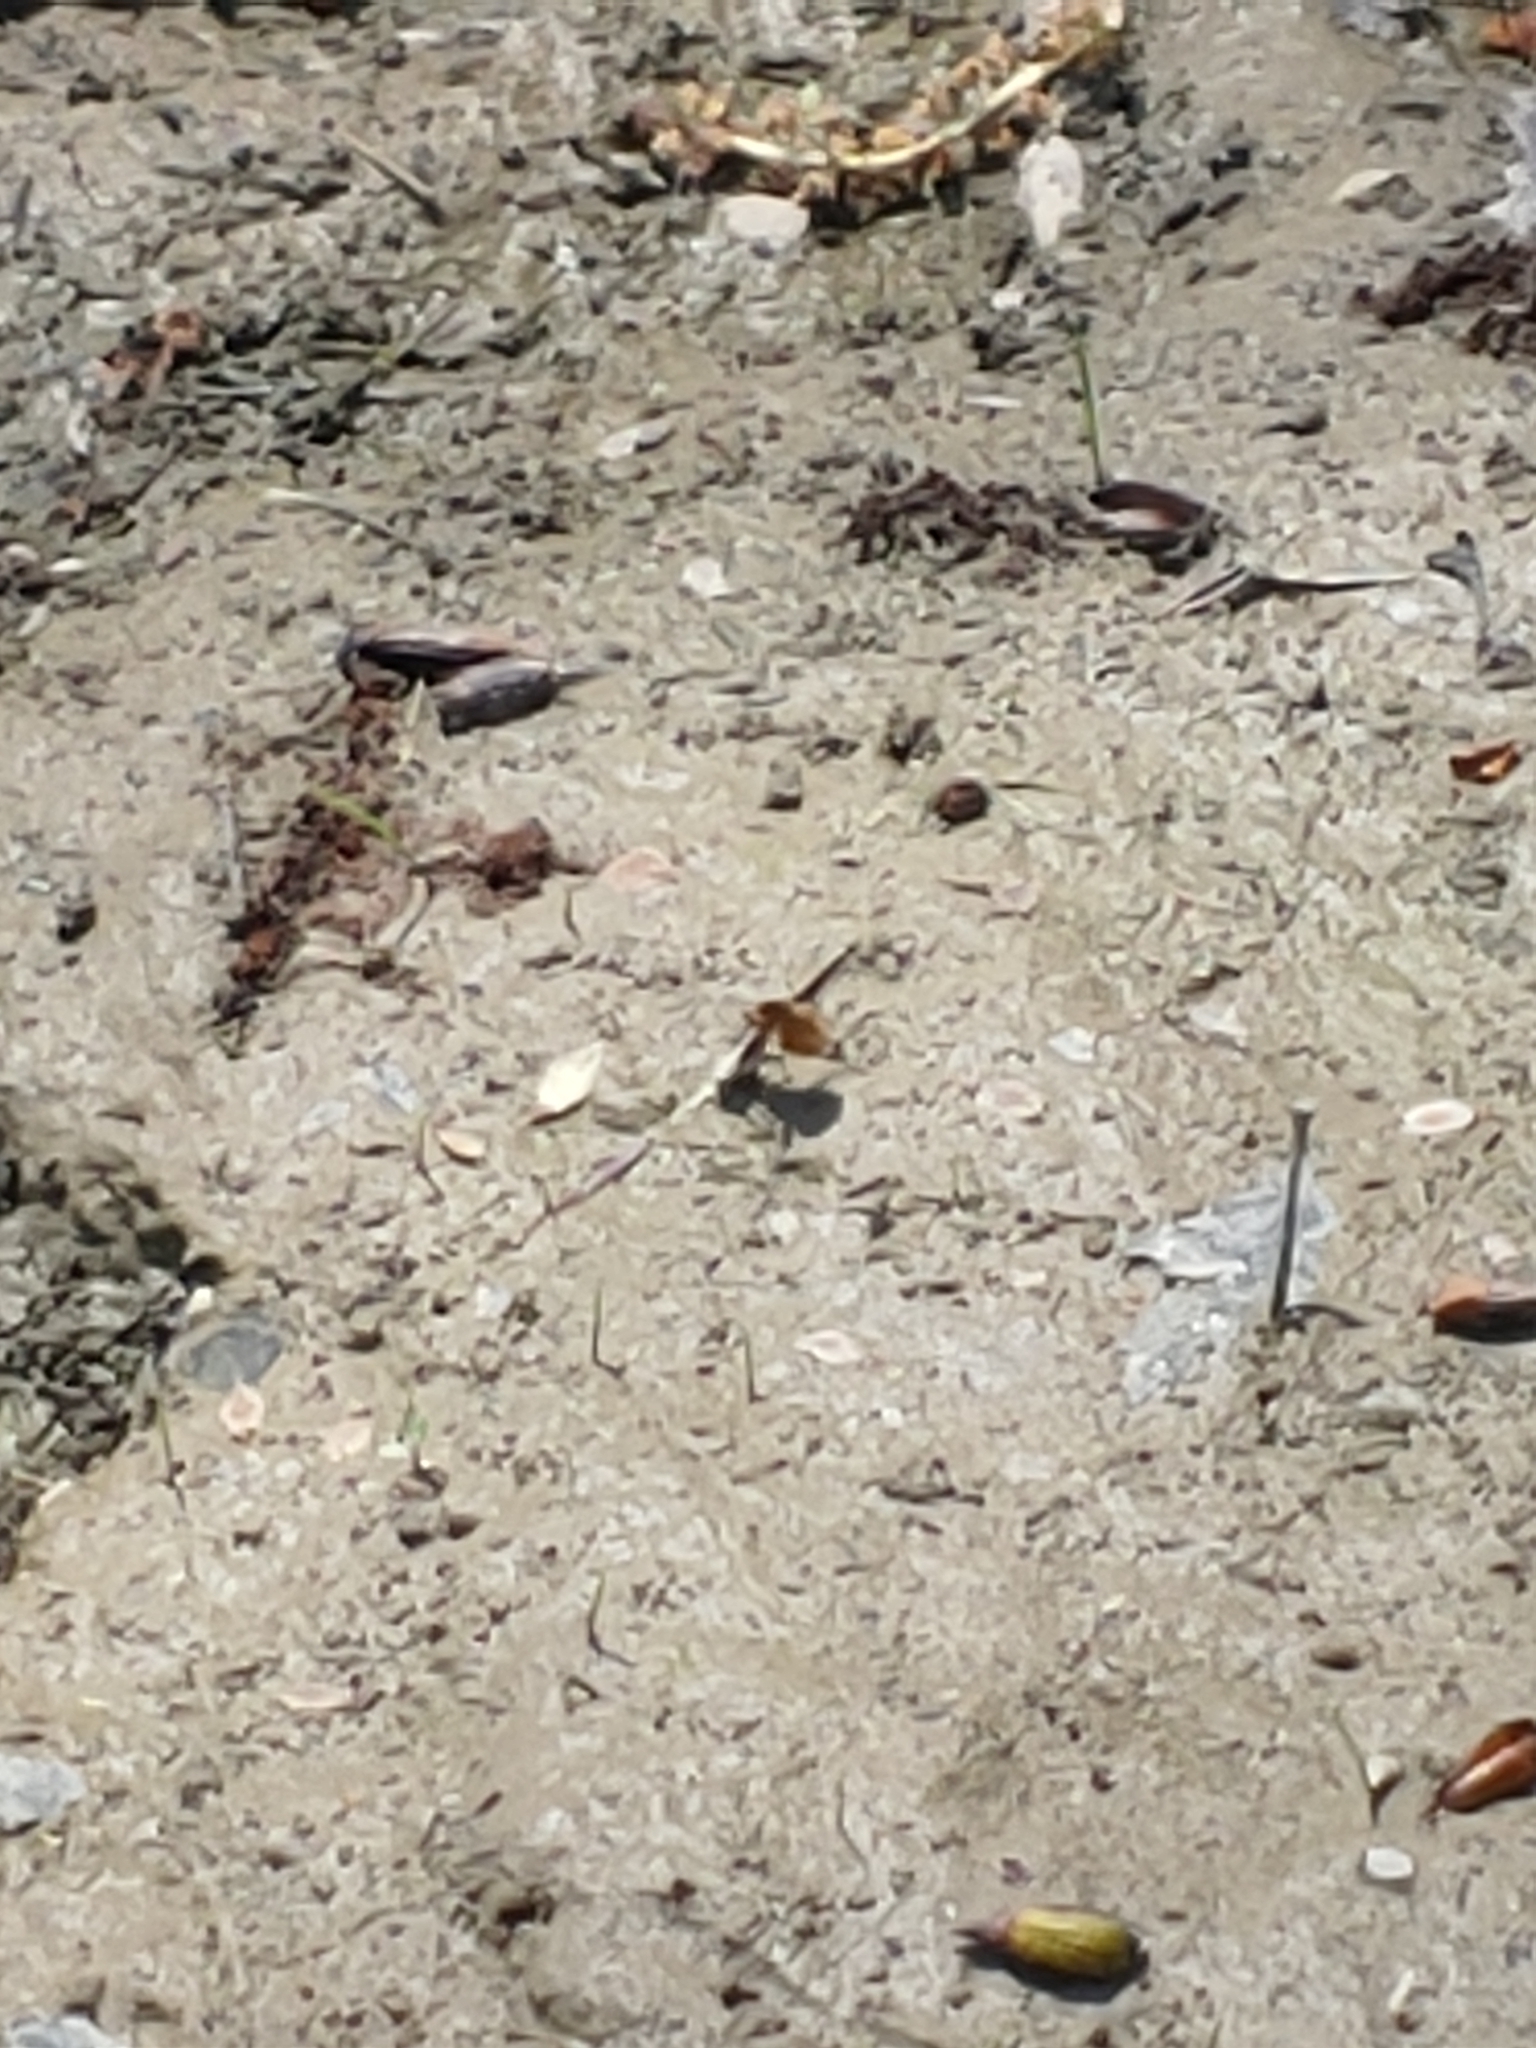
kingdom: Animalia
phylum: Arthropoda
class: Insecta
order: Diptera
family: Bombyliidae
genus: Bombylius
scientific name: Bombylius major
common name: Bee fly
